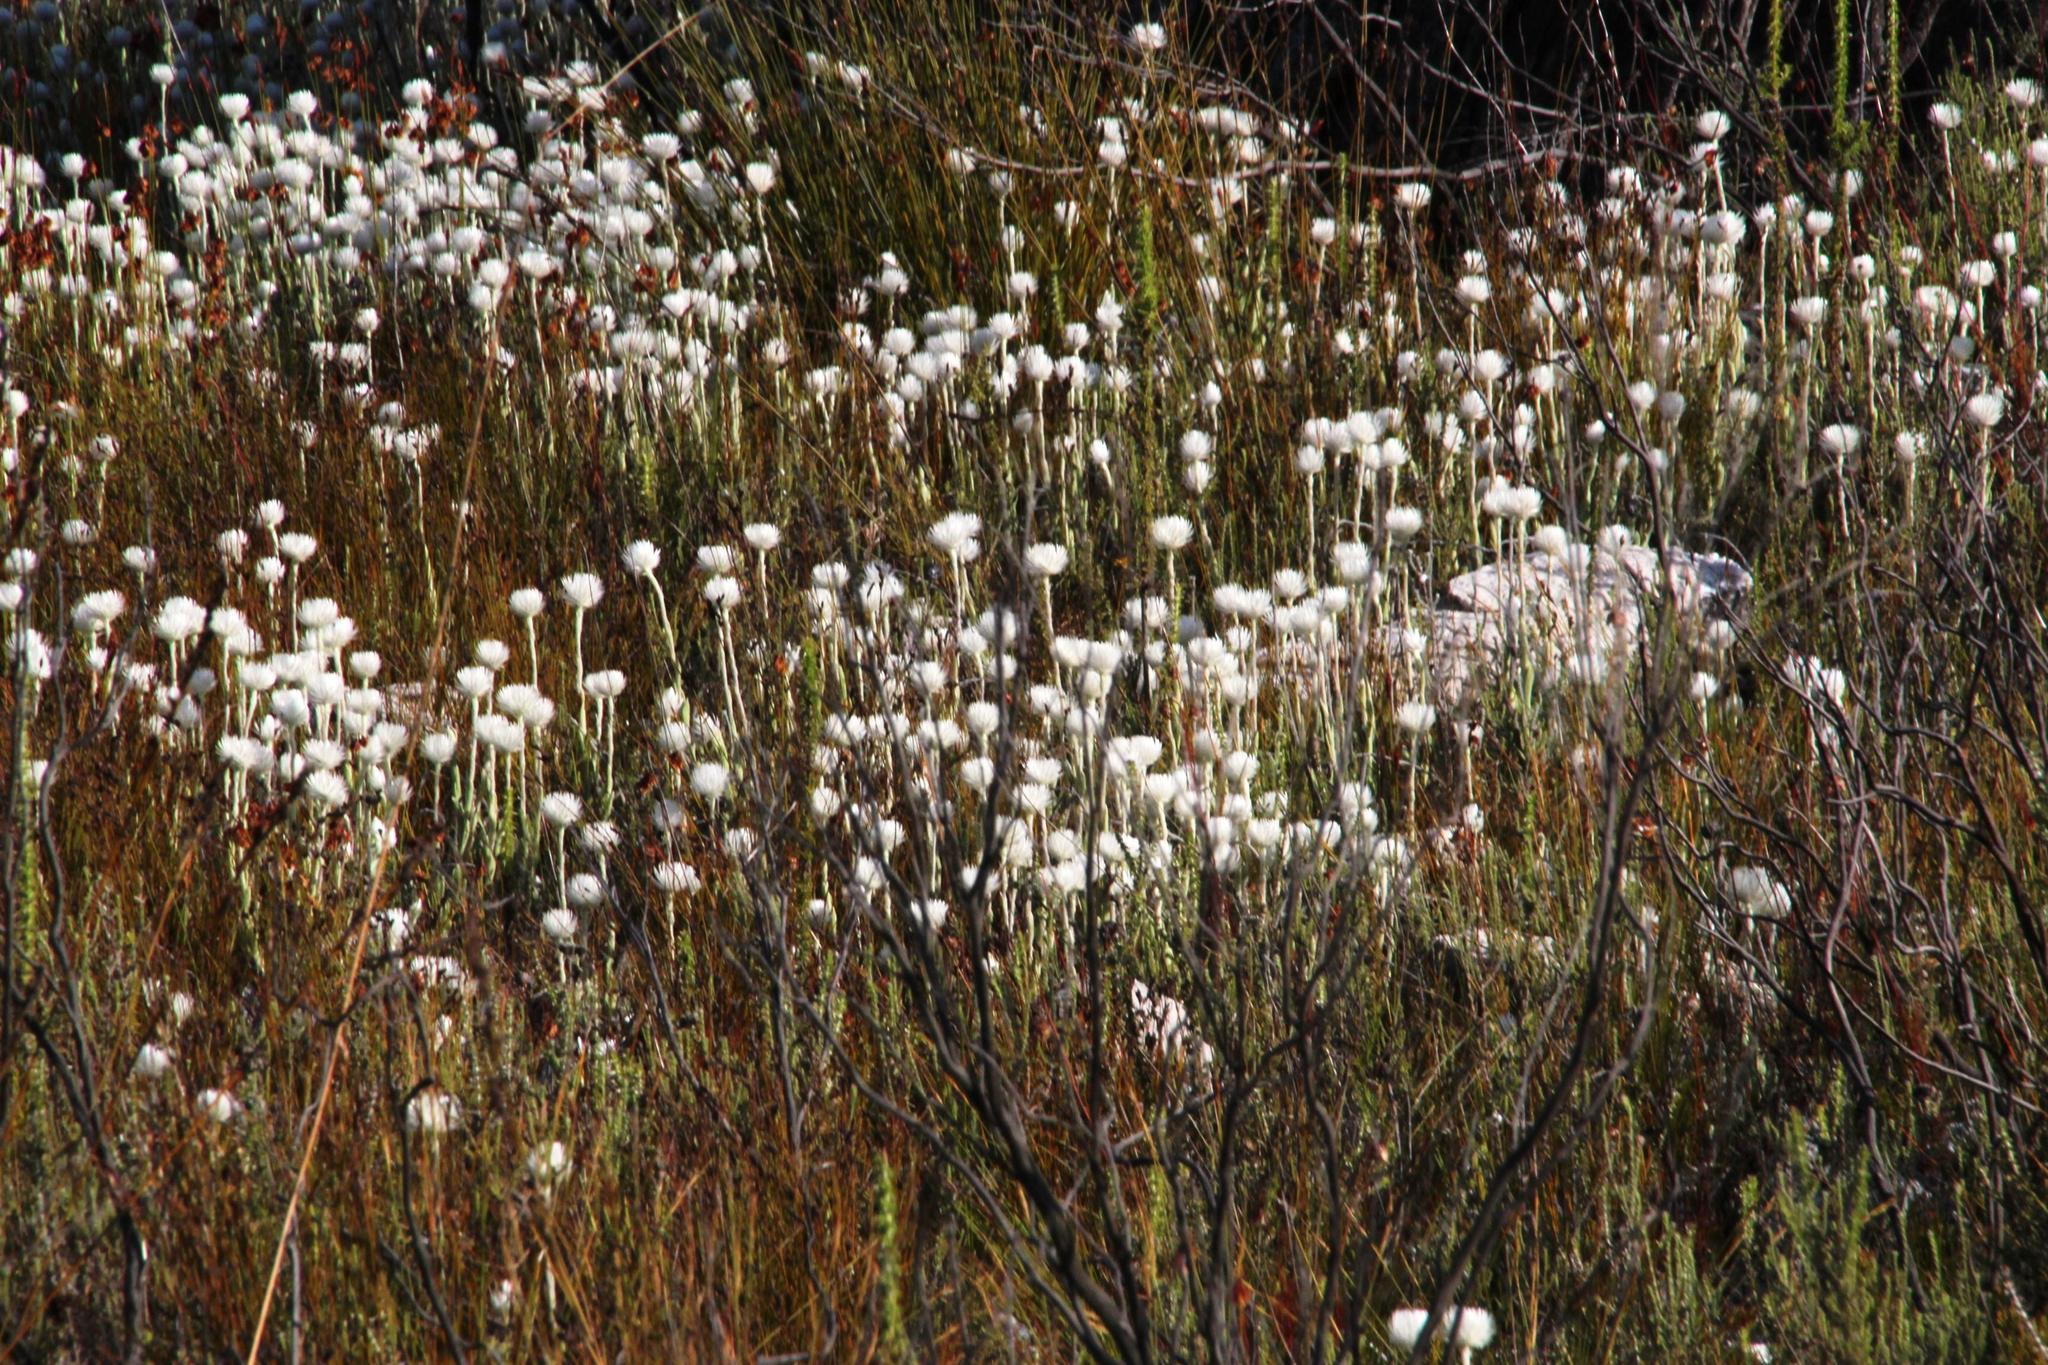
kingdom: Plantae
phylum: Tracheophyta
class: Magnoliopsida
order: Asterales
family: Asteraceae
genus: Syncarpha
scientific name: Syncarpha vestita
